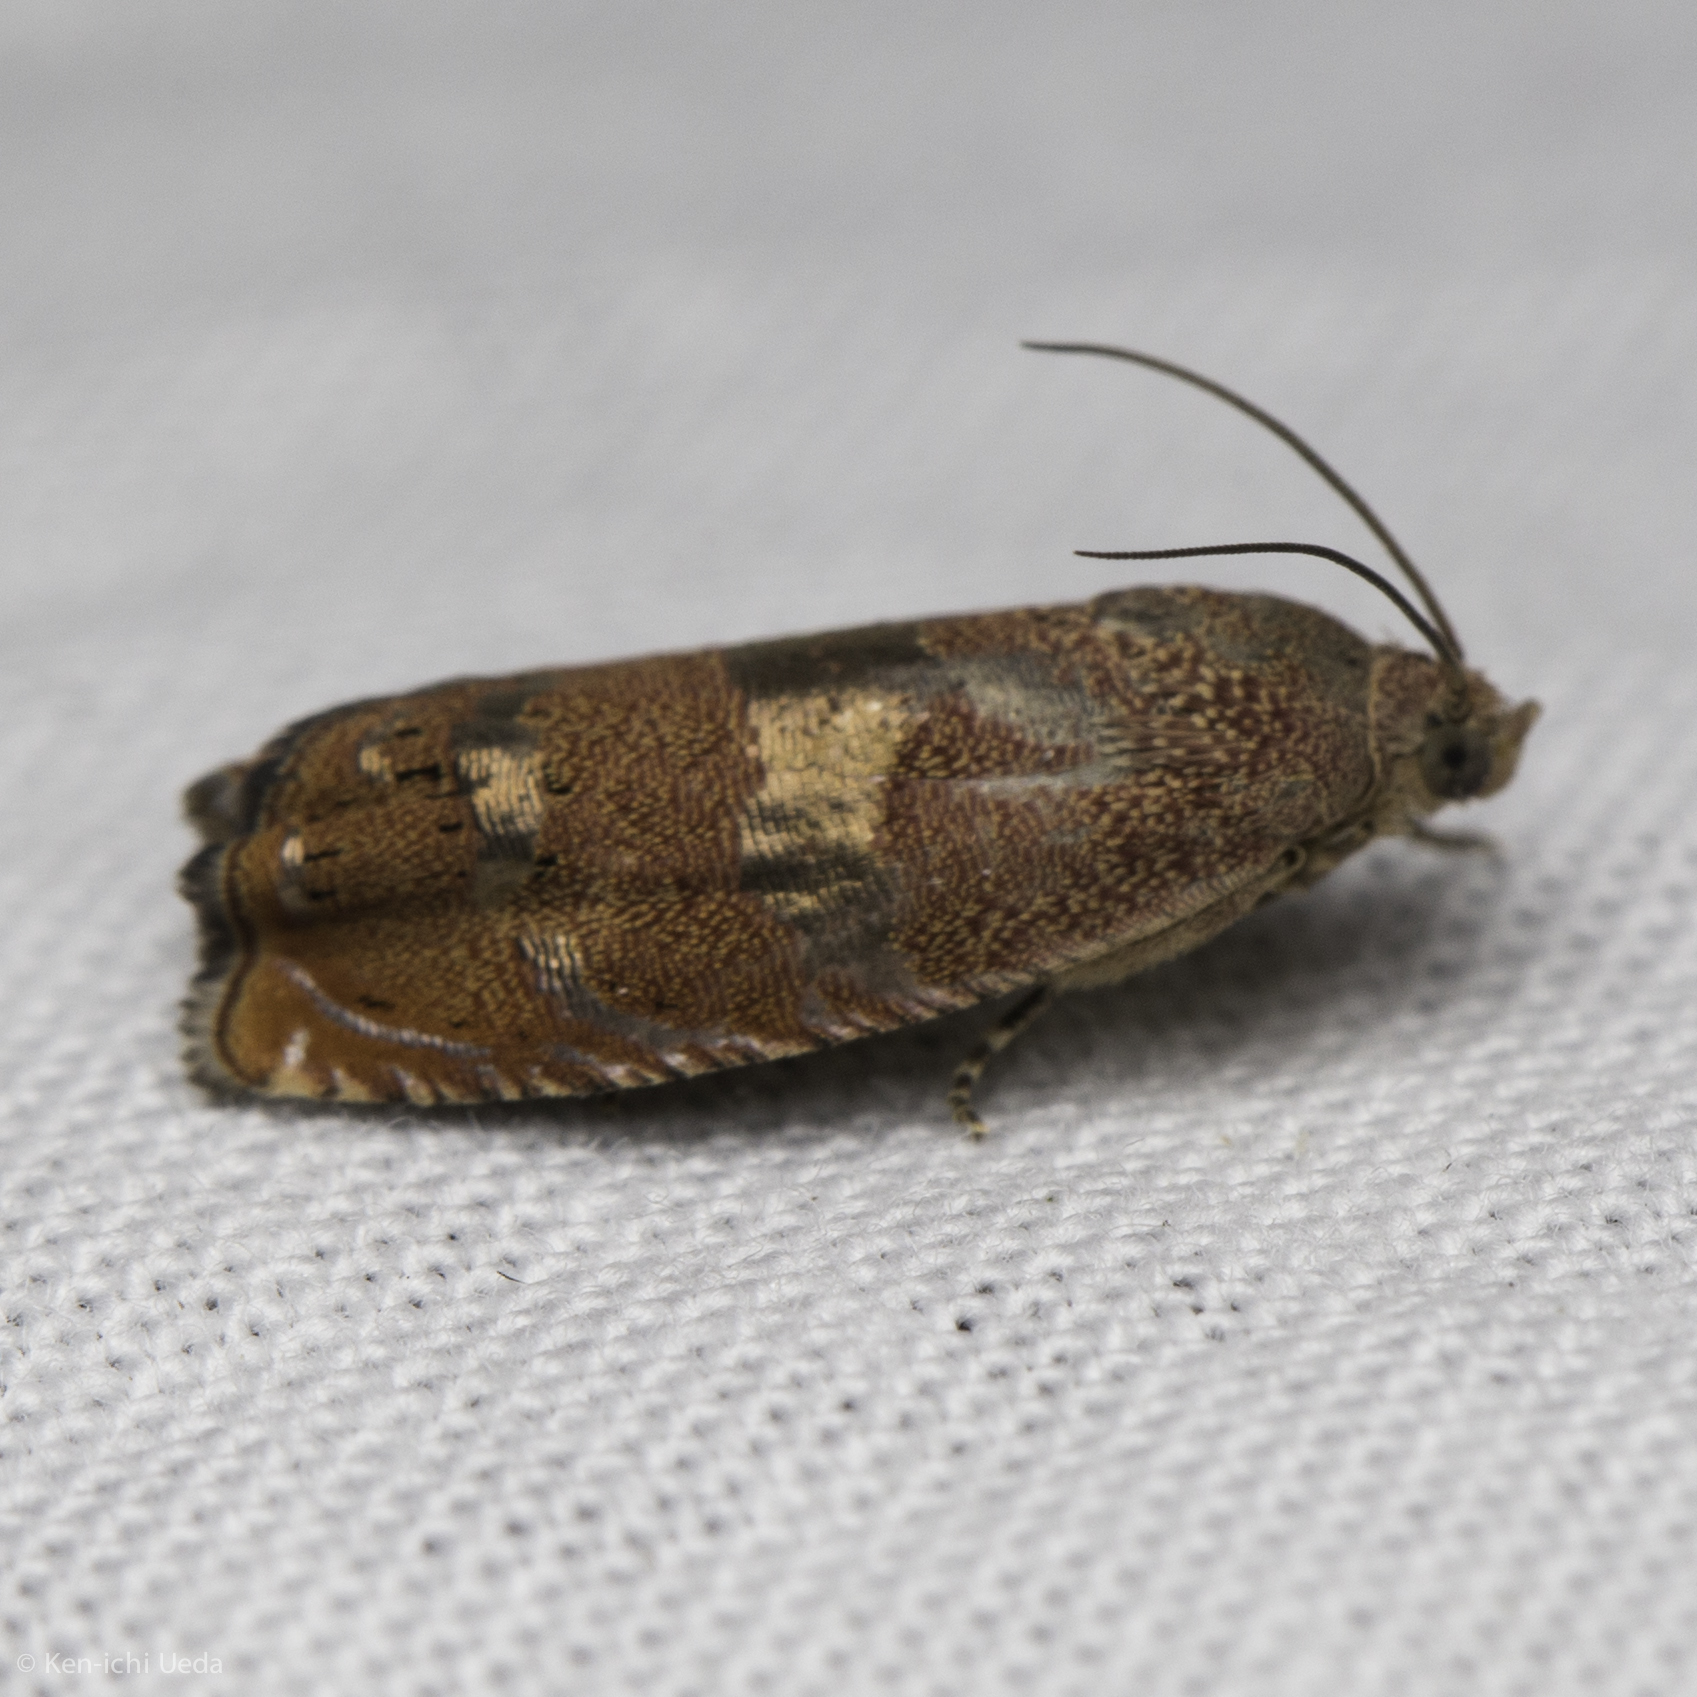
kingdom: Animalia
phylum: Arthropoda
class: Insecta
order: Lepidoptera
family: Tortricidae
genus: Cydia
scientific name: Cydia latiferreana
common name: Filbertworm moth
